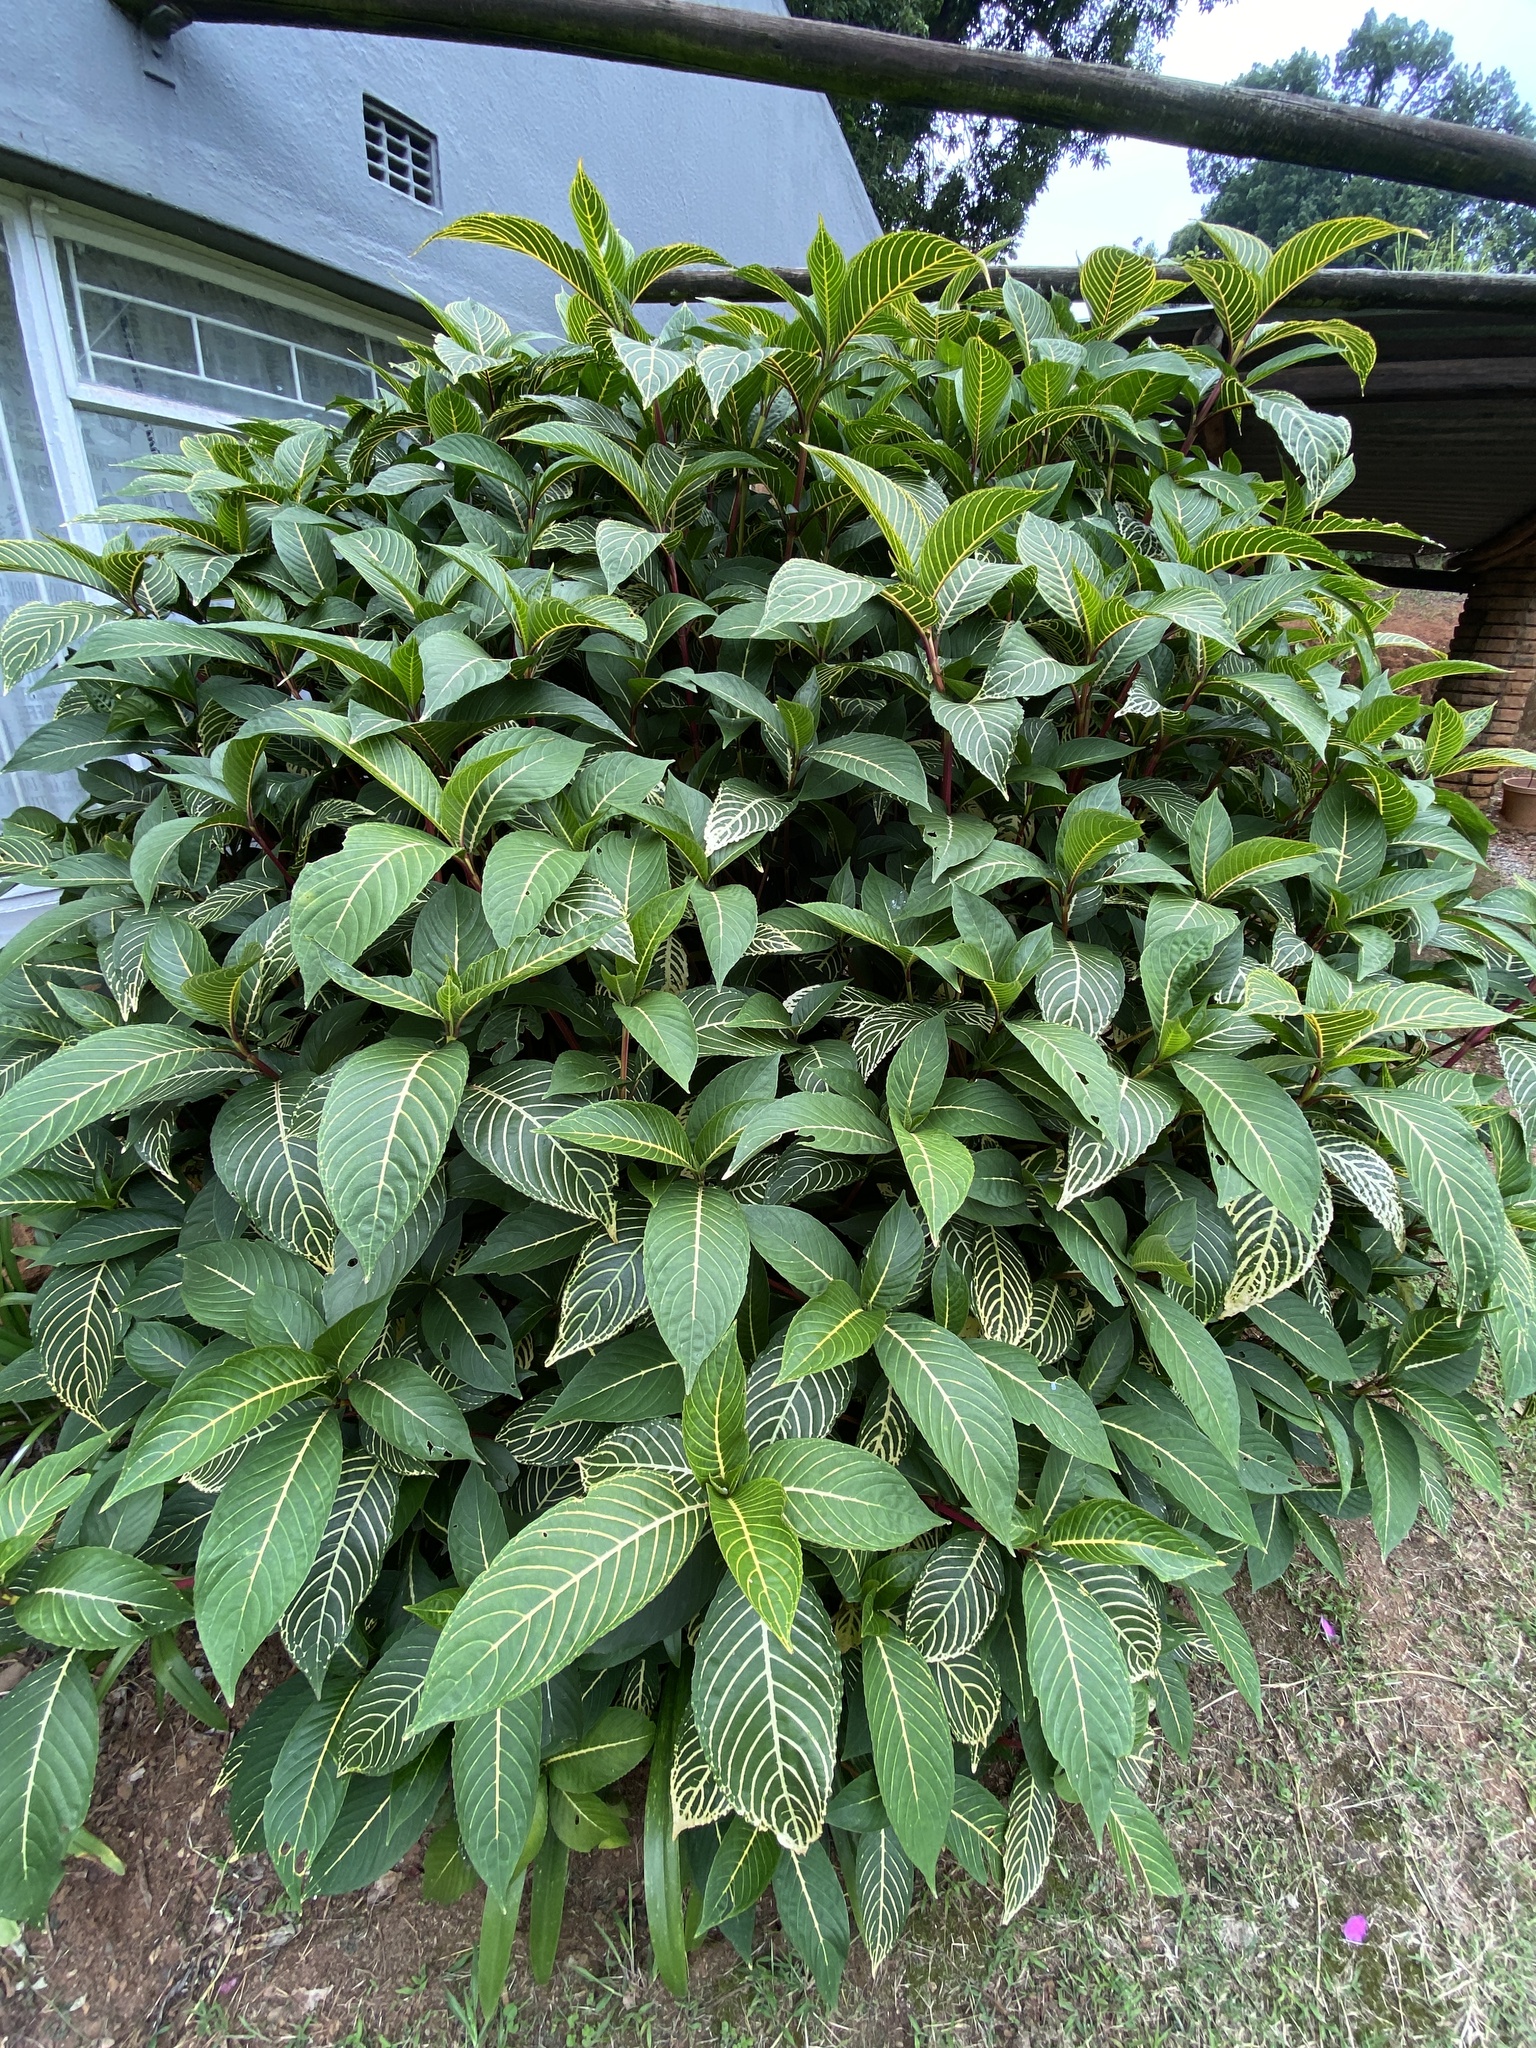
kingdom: Plantae
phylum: Tracheophyta
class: Magnoliopsida
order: Lamiales
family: Acanthaceae
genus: Sanchezia
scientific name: Sanchezia parvibracteata
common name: Sanchezia
